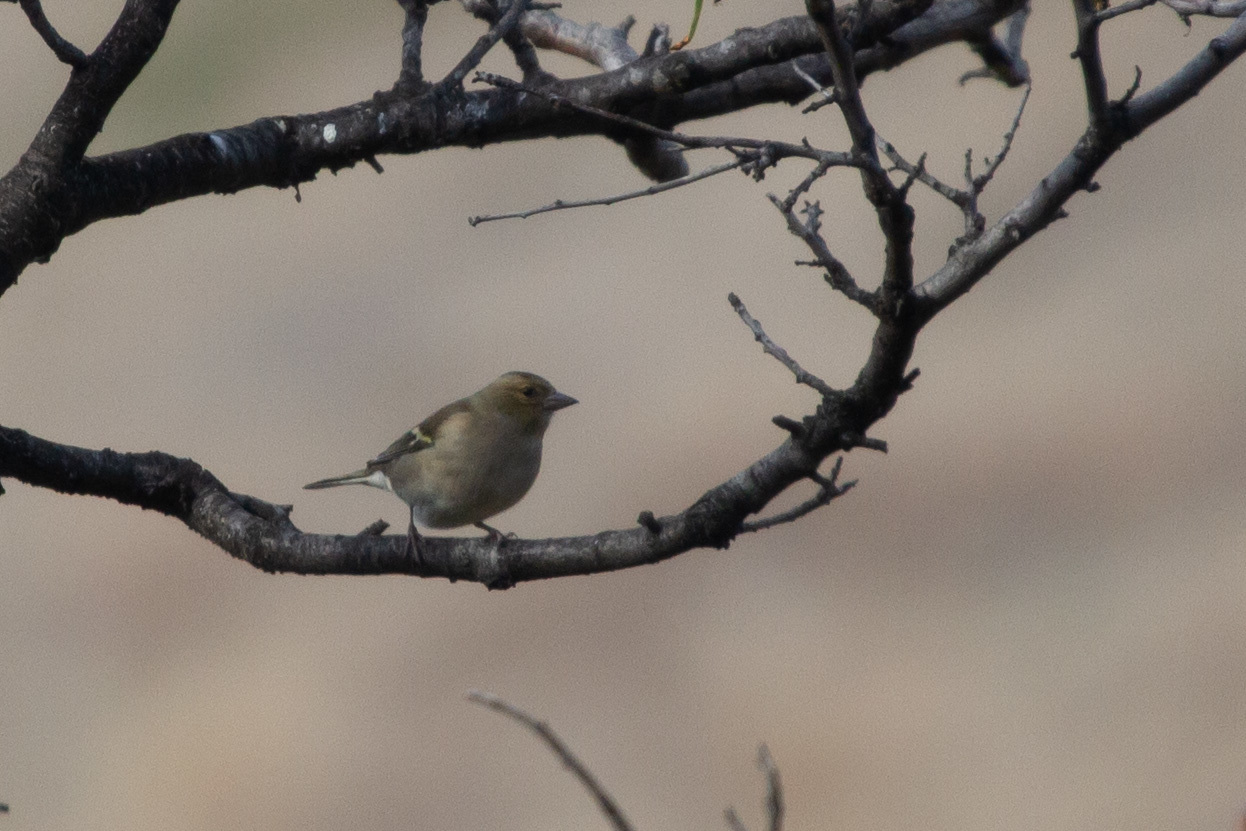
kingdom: Animalia
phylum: Chordata
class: Aves
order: Passeriformes
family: Fringillidae
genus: Fringilla
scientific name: Fringilla coelebs
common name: Common chaffinch
